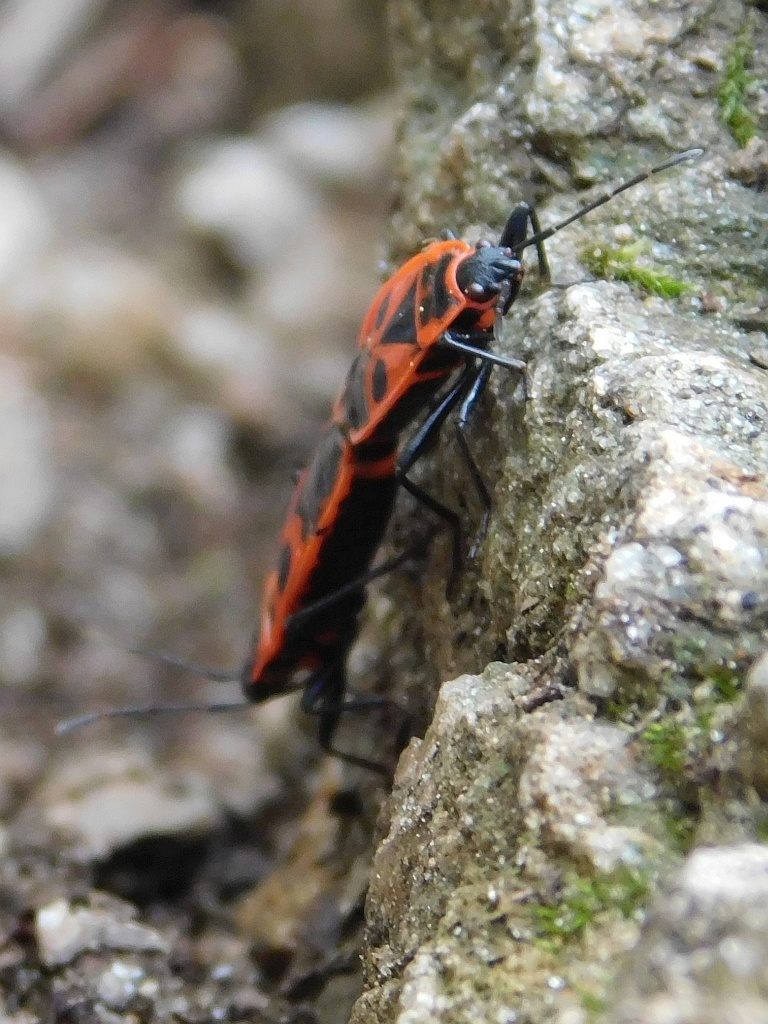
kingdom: Animalia
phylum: Arthropoda
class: Insecta
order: Hemiptera
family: Pyrrhocoridae
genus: Pyrrhocoris
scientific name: Pyrrhocoris apterus
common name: Firebug
